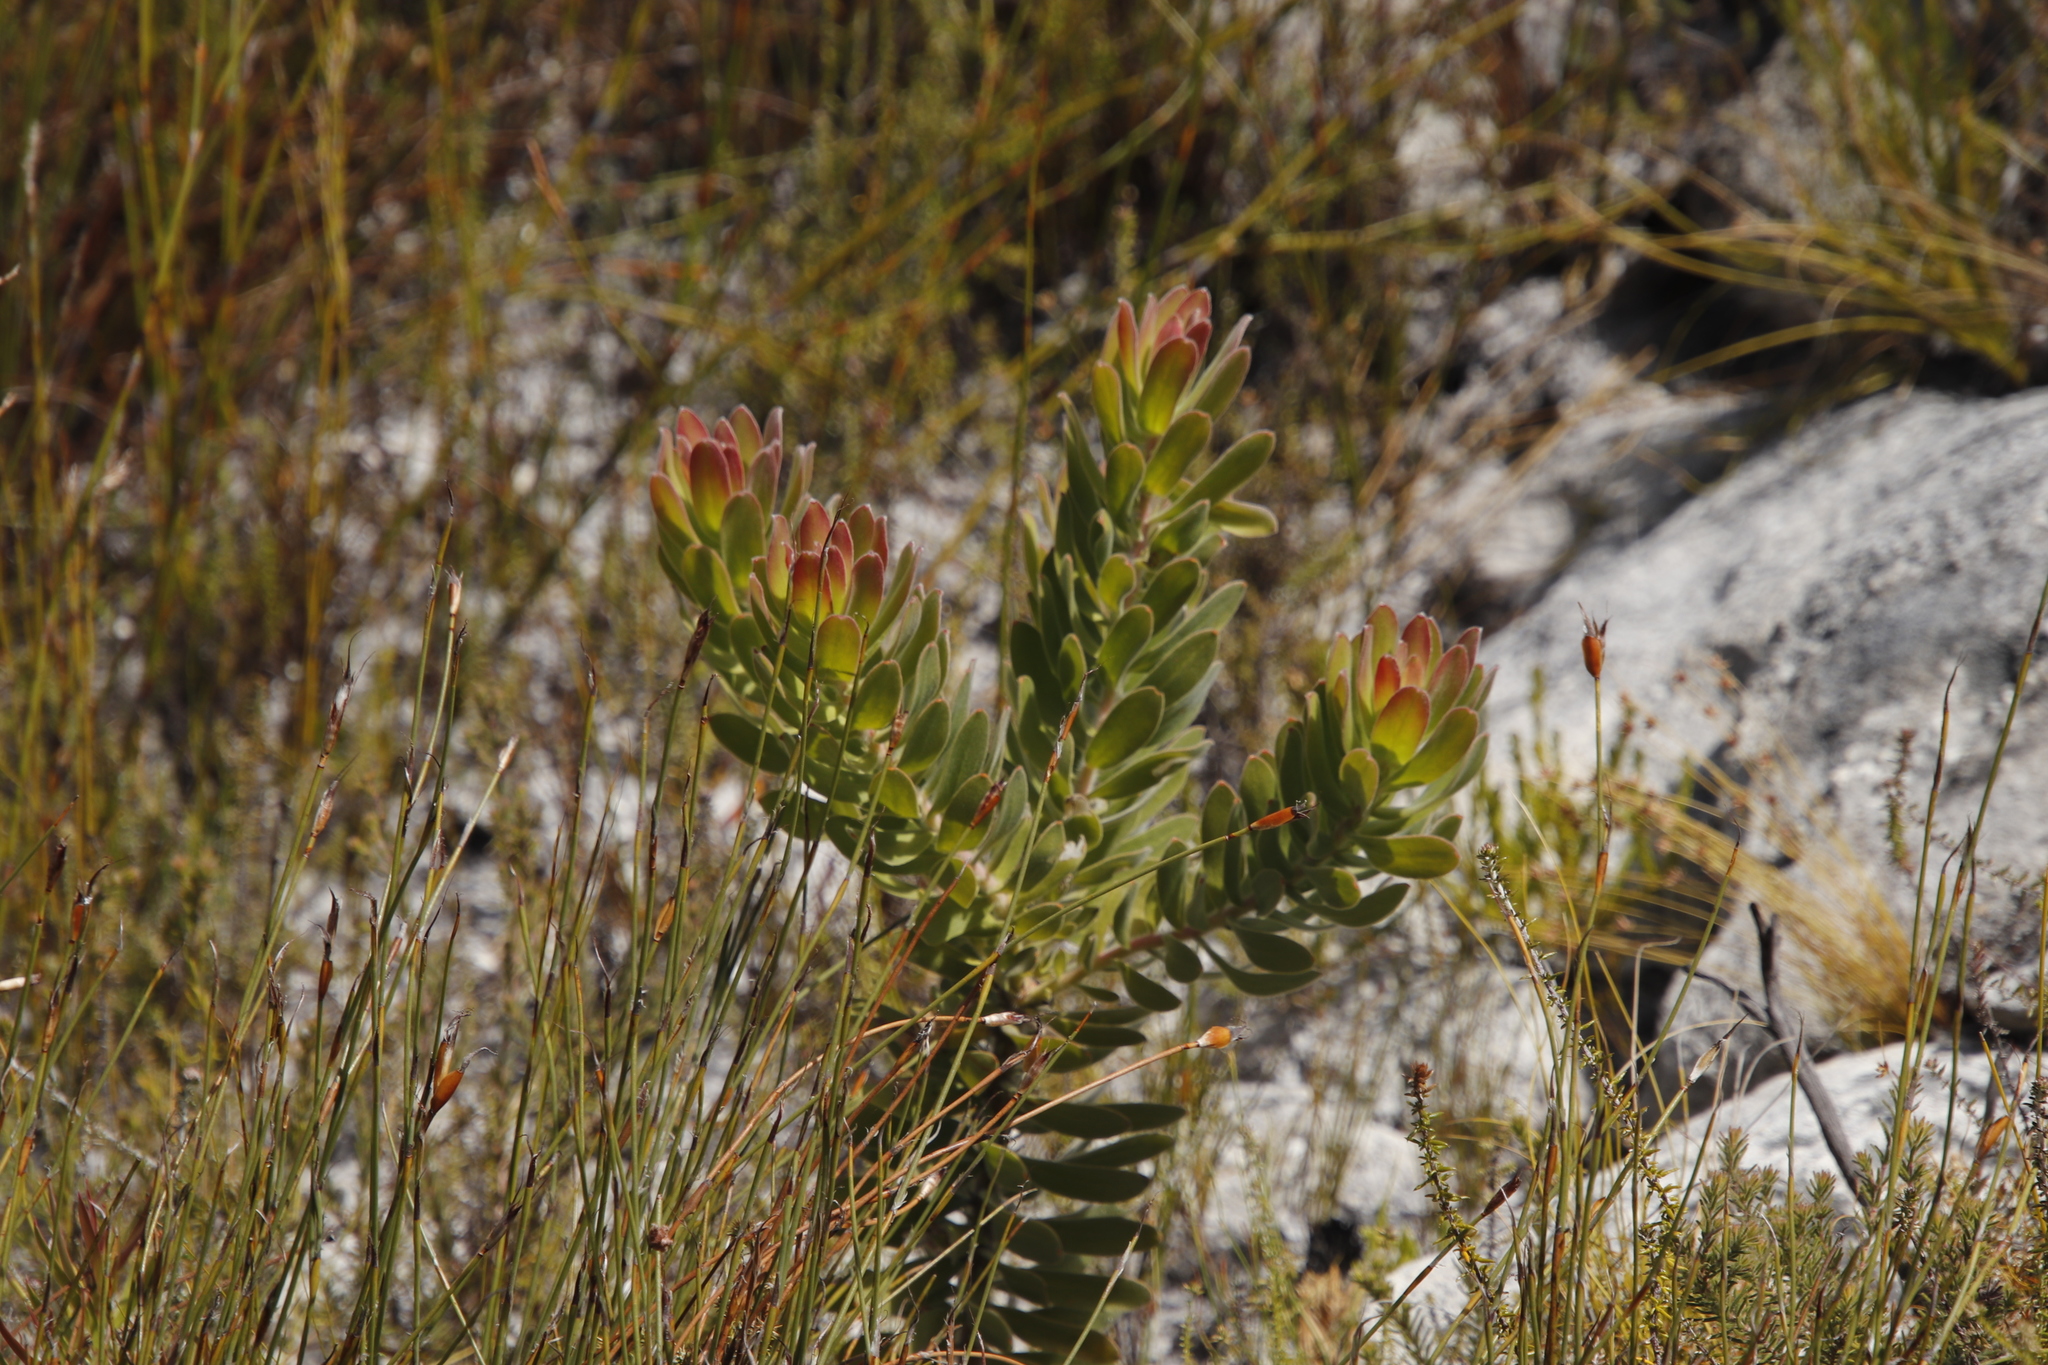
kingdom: Plantae
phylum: Tracheophyta
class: Magnoliopsida
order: Proteales
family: Proteaceae
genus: Leucospermum
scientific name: Leucospermum oleifolium
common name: Matches
